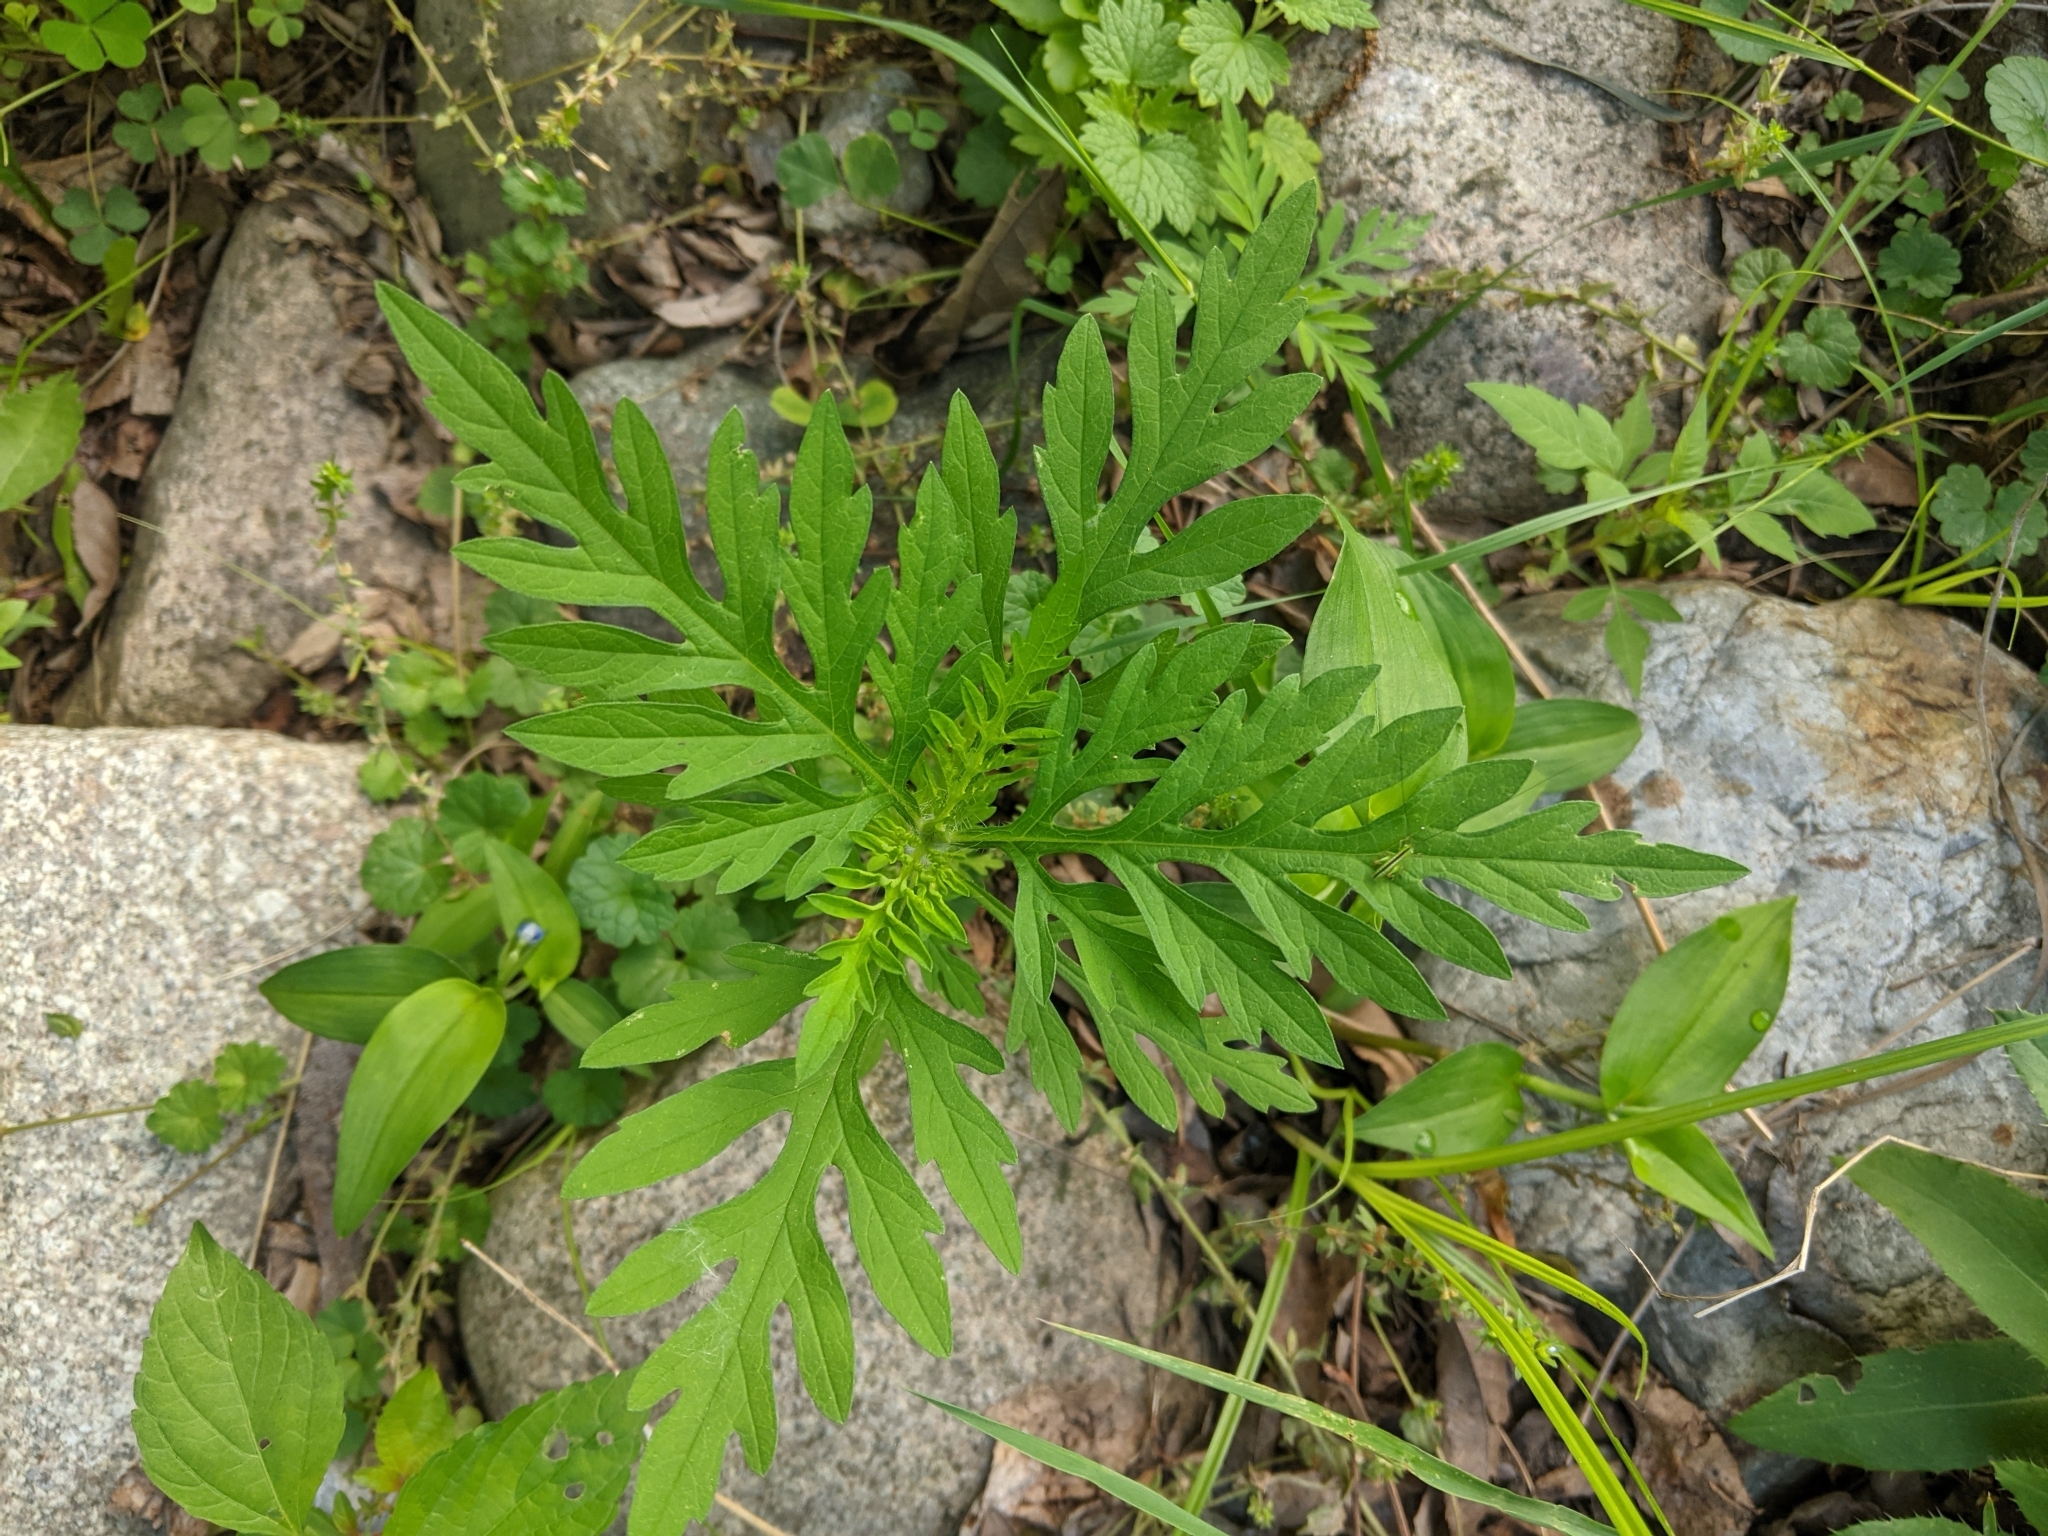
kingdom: Plantae
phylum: Tracheophyta
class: Magnoliopsida
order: Asterales
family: Asteraceae
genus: Ambrosia
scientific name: Ambrosia artemisiifolia
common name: Annual ragweed
